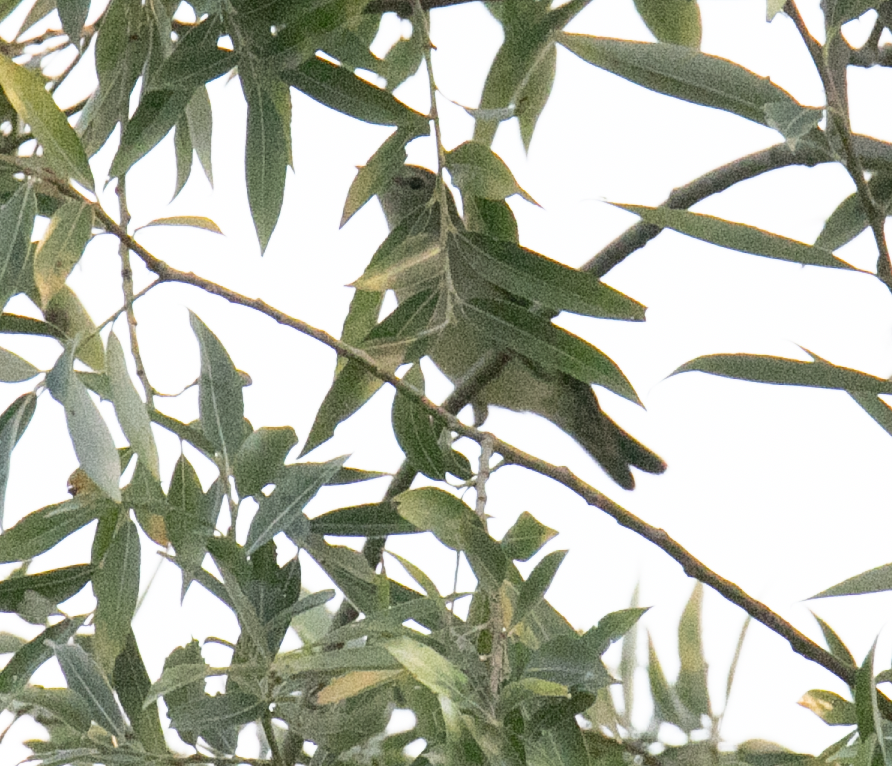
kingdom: Animalia
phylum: Chordata
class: Aves
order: Passeriformes
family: Sylviidae
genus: Sylvia
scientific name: Sylvia borin
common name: Garden warbler
